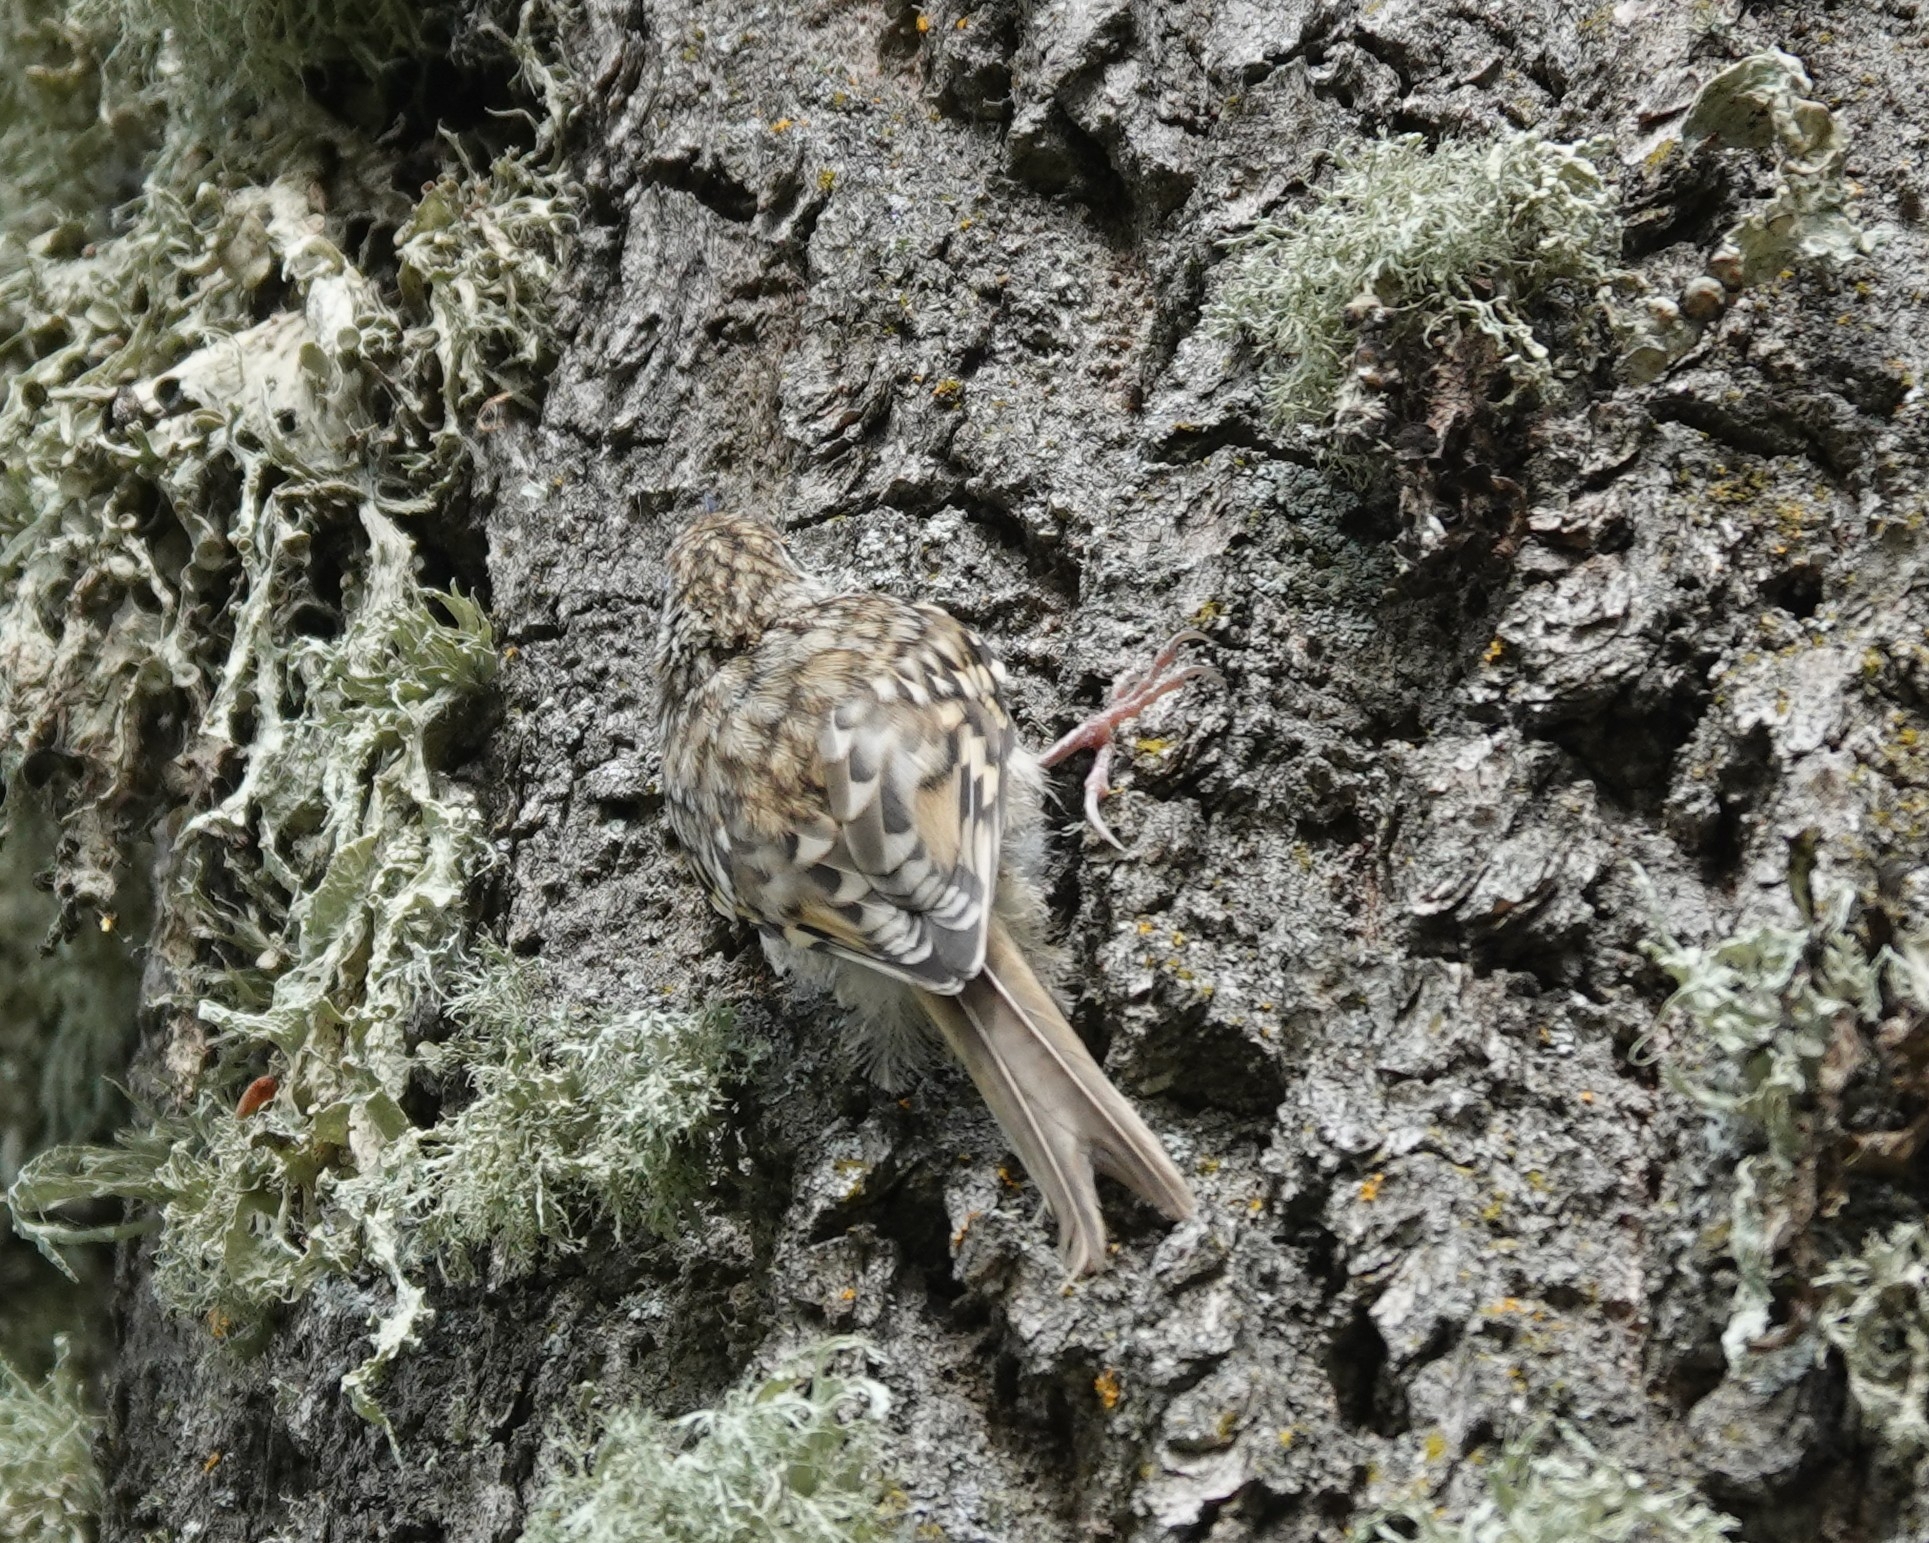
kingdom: Animalia
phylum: Chordata
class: Aves
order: Passeriformes
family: Certhiidae
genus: Certhia
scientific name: Certhia familiaris
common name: Eurasian treecreeper
